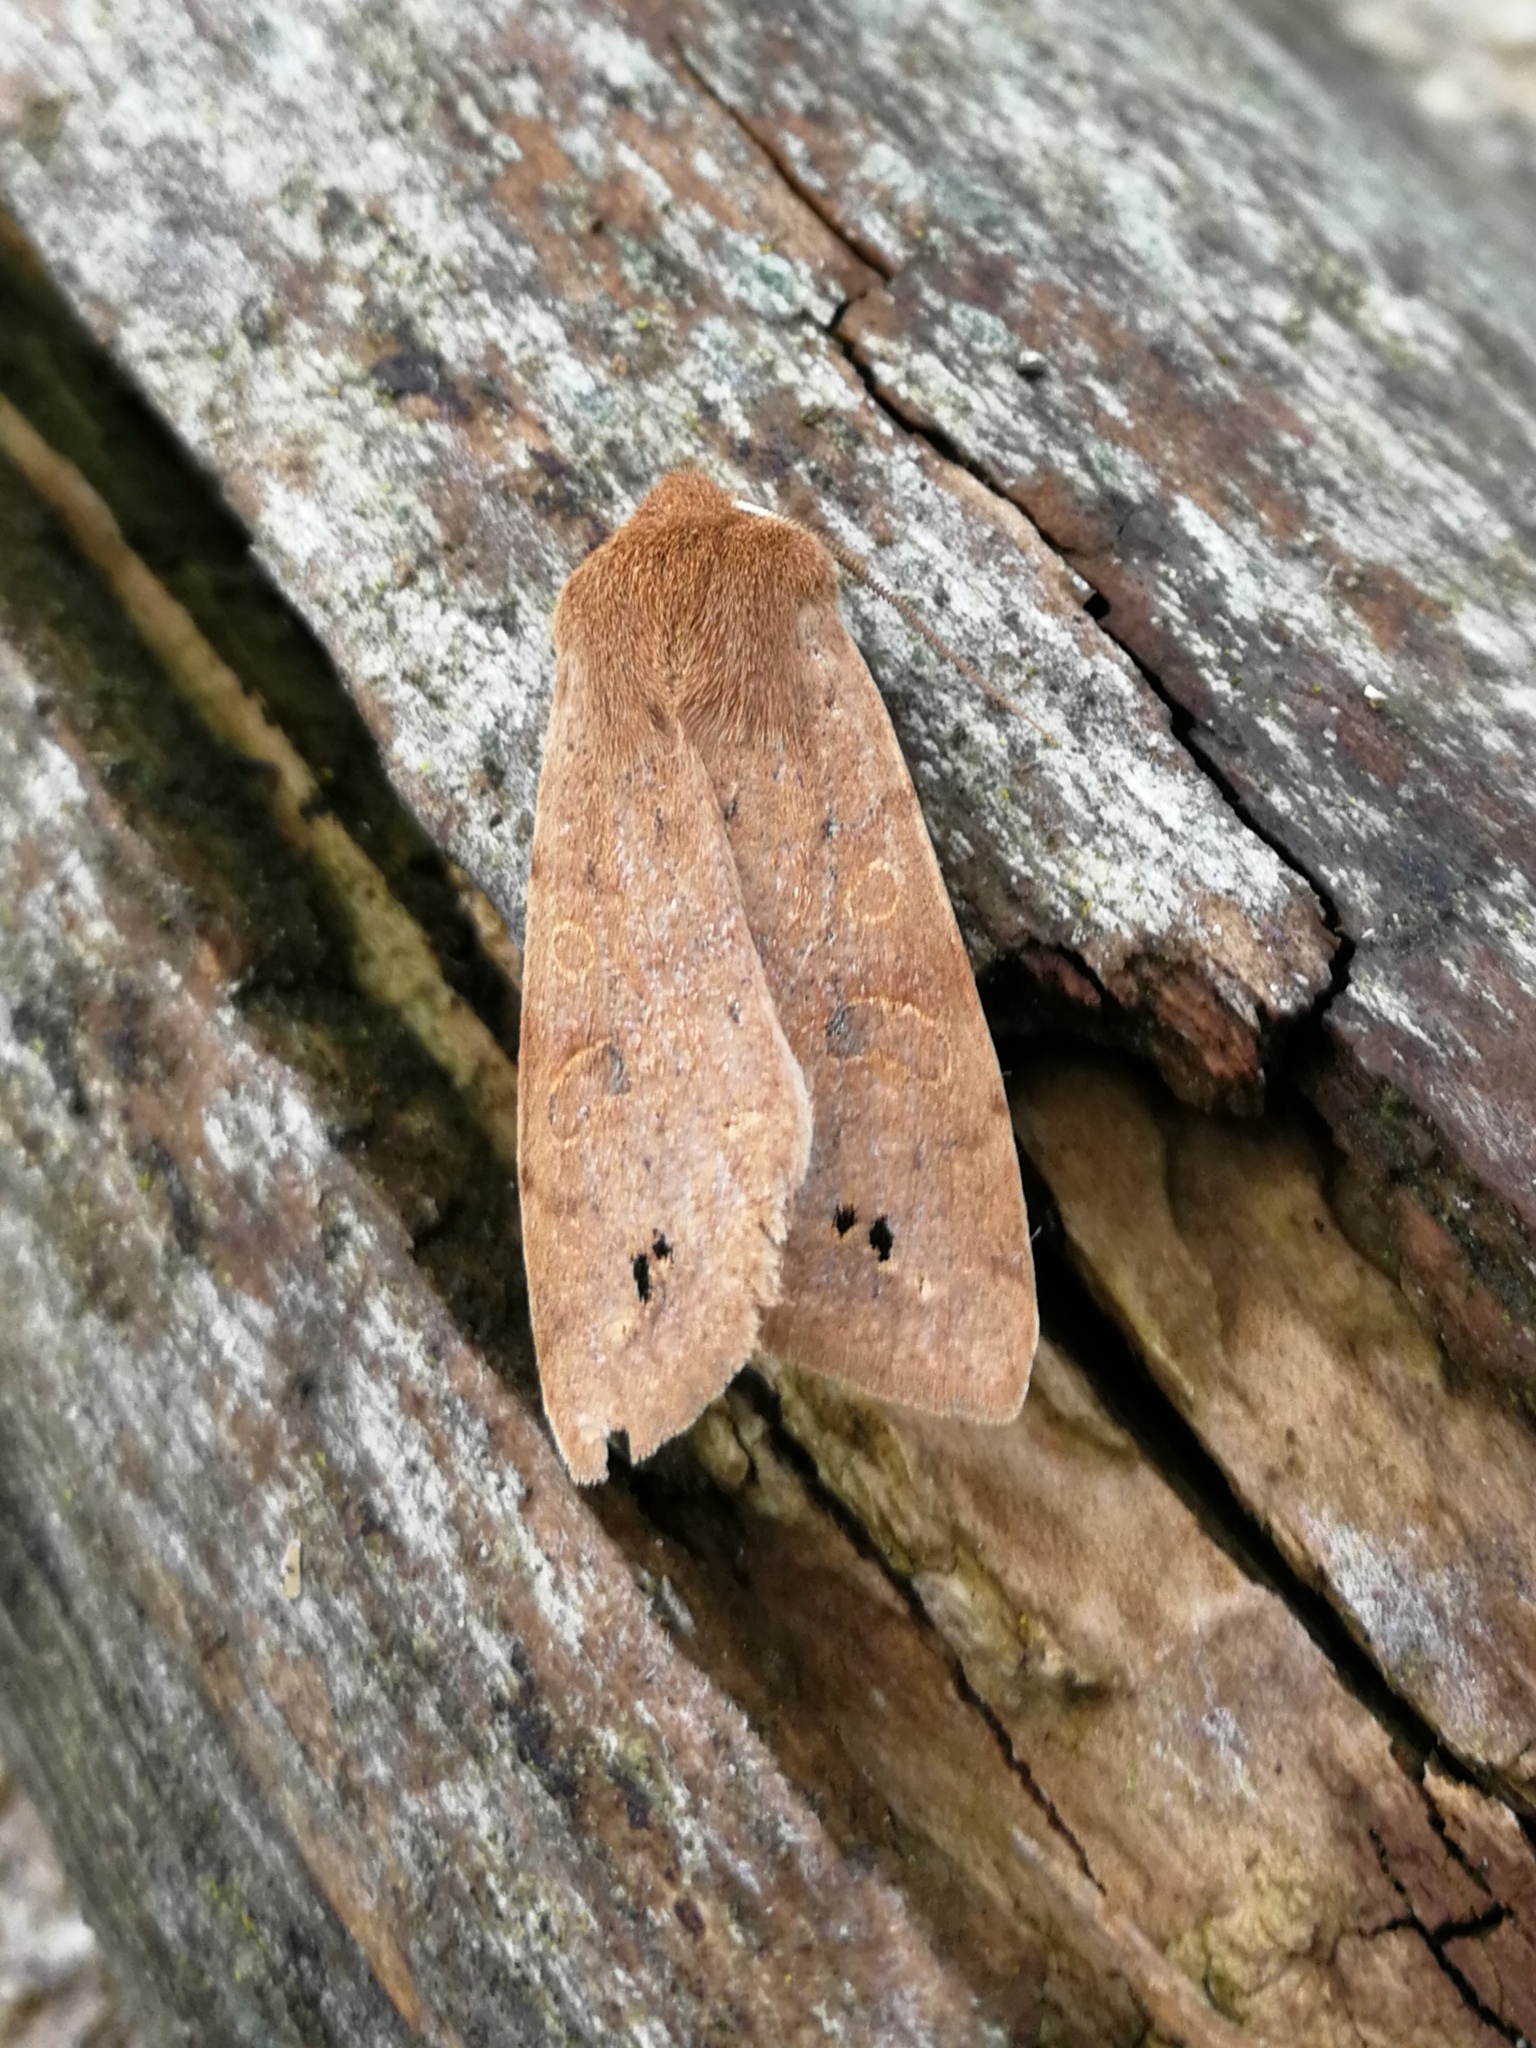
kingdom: Animalia
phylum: Arthropoda
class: Insecta
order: Lepidoptera
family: Noctuidae
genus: Anorthoa
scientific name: Anorthoa munda
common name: Twin-spotted quaker
